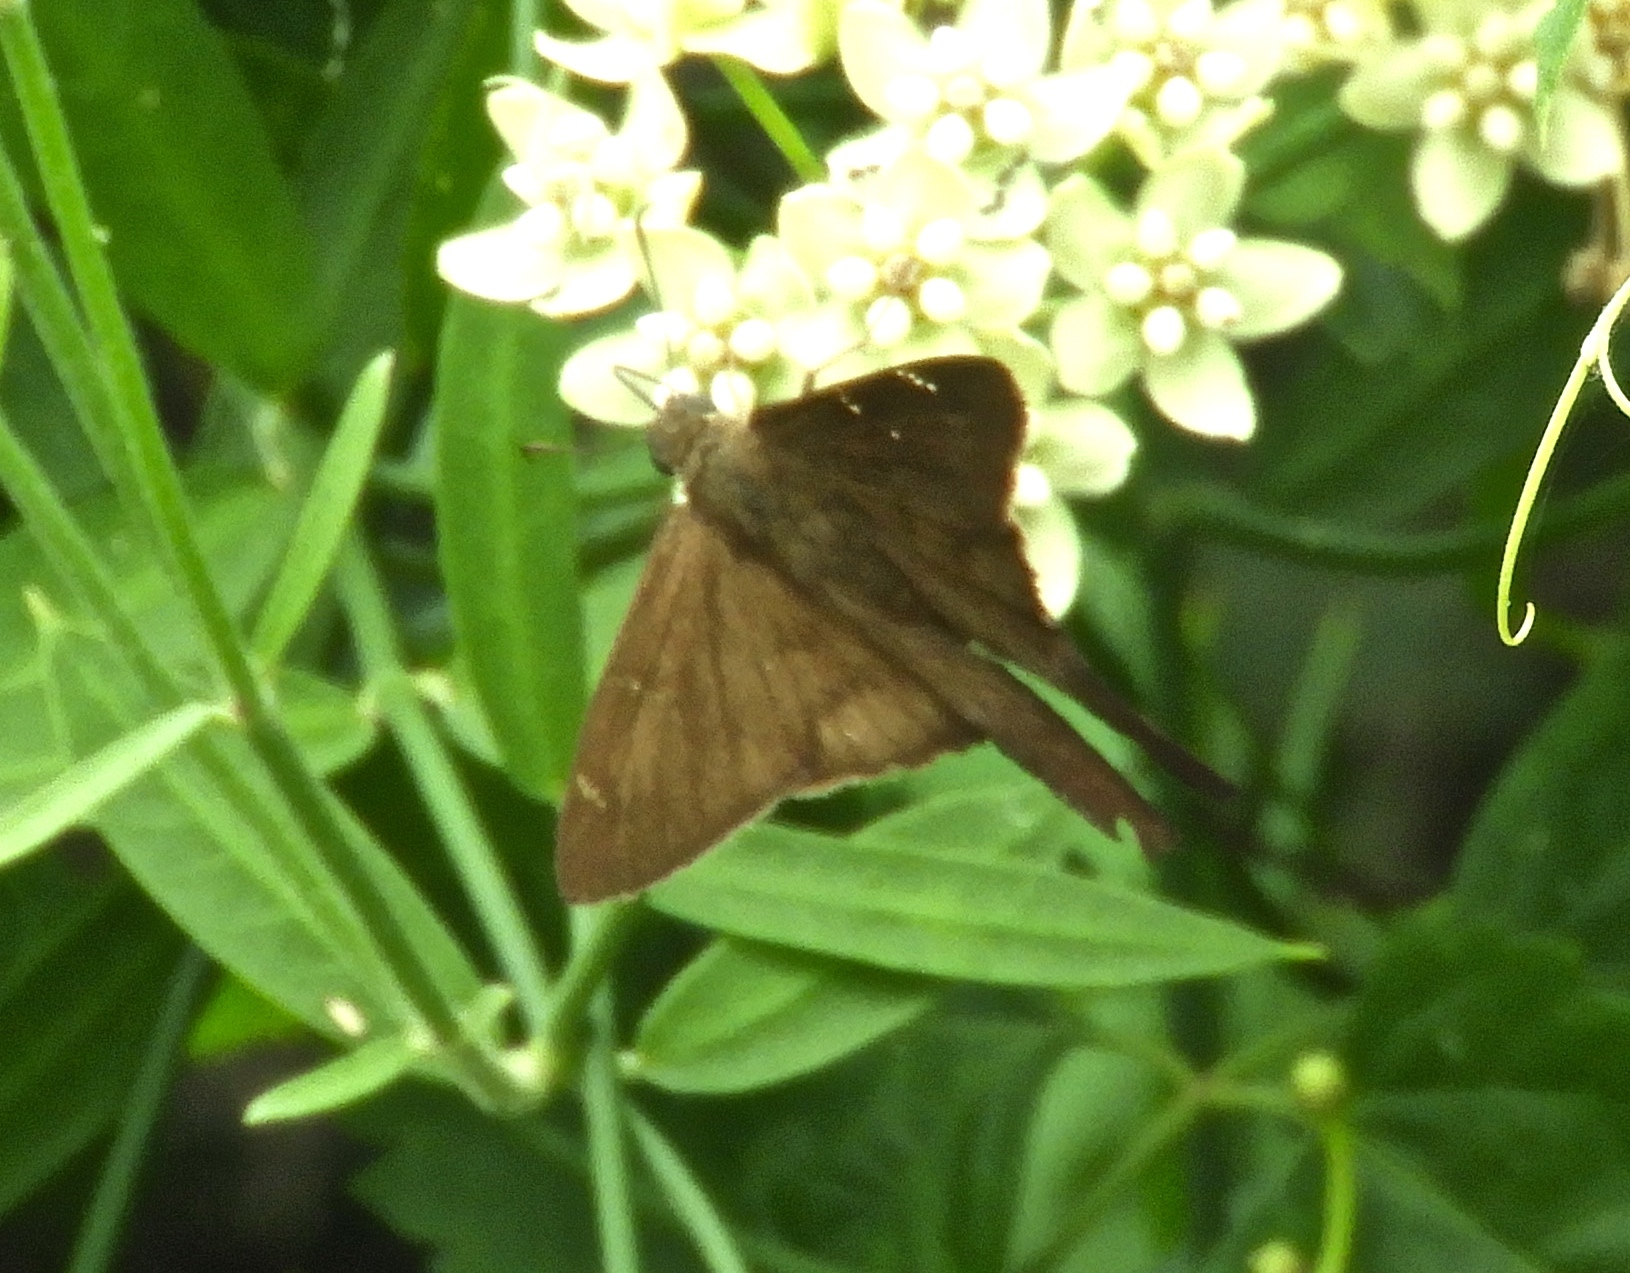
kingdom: Animalia
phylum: Arthropoda
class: Insecta
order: Lepidoptera
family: Hesperiidae
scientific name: Hesperiidae
